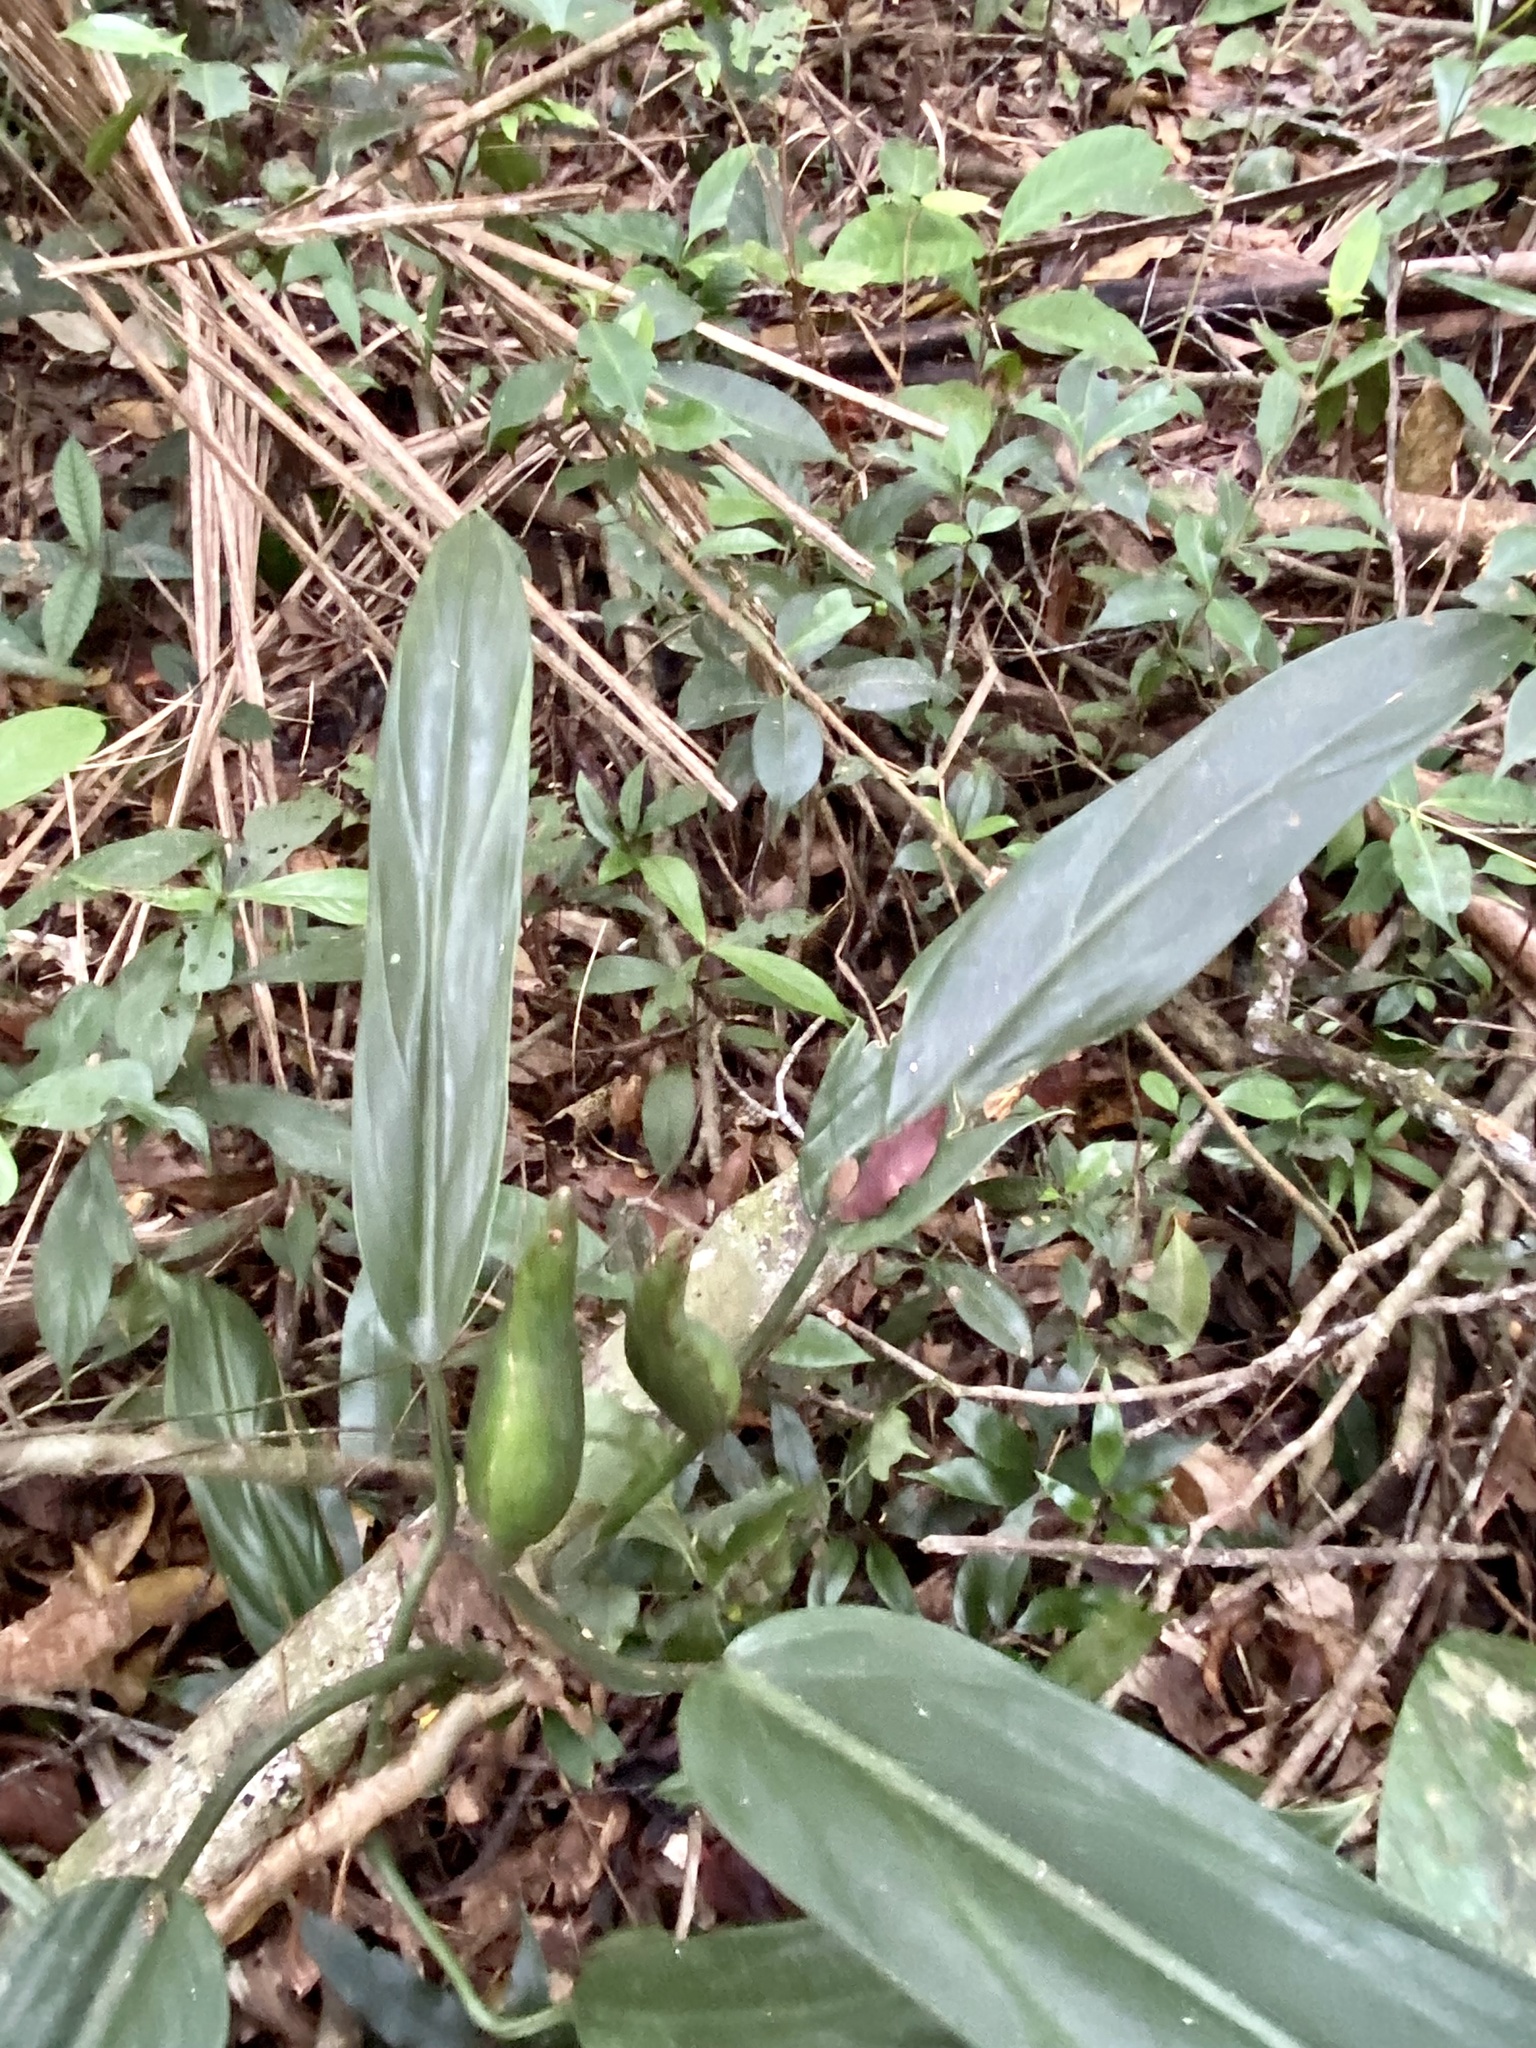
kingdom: Plantae
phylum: Tracheophyta
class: Liliopsida
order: Alismatales
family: Araceae
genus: Philodendron
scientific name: Philodendron hatschbachii
